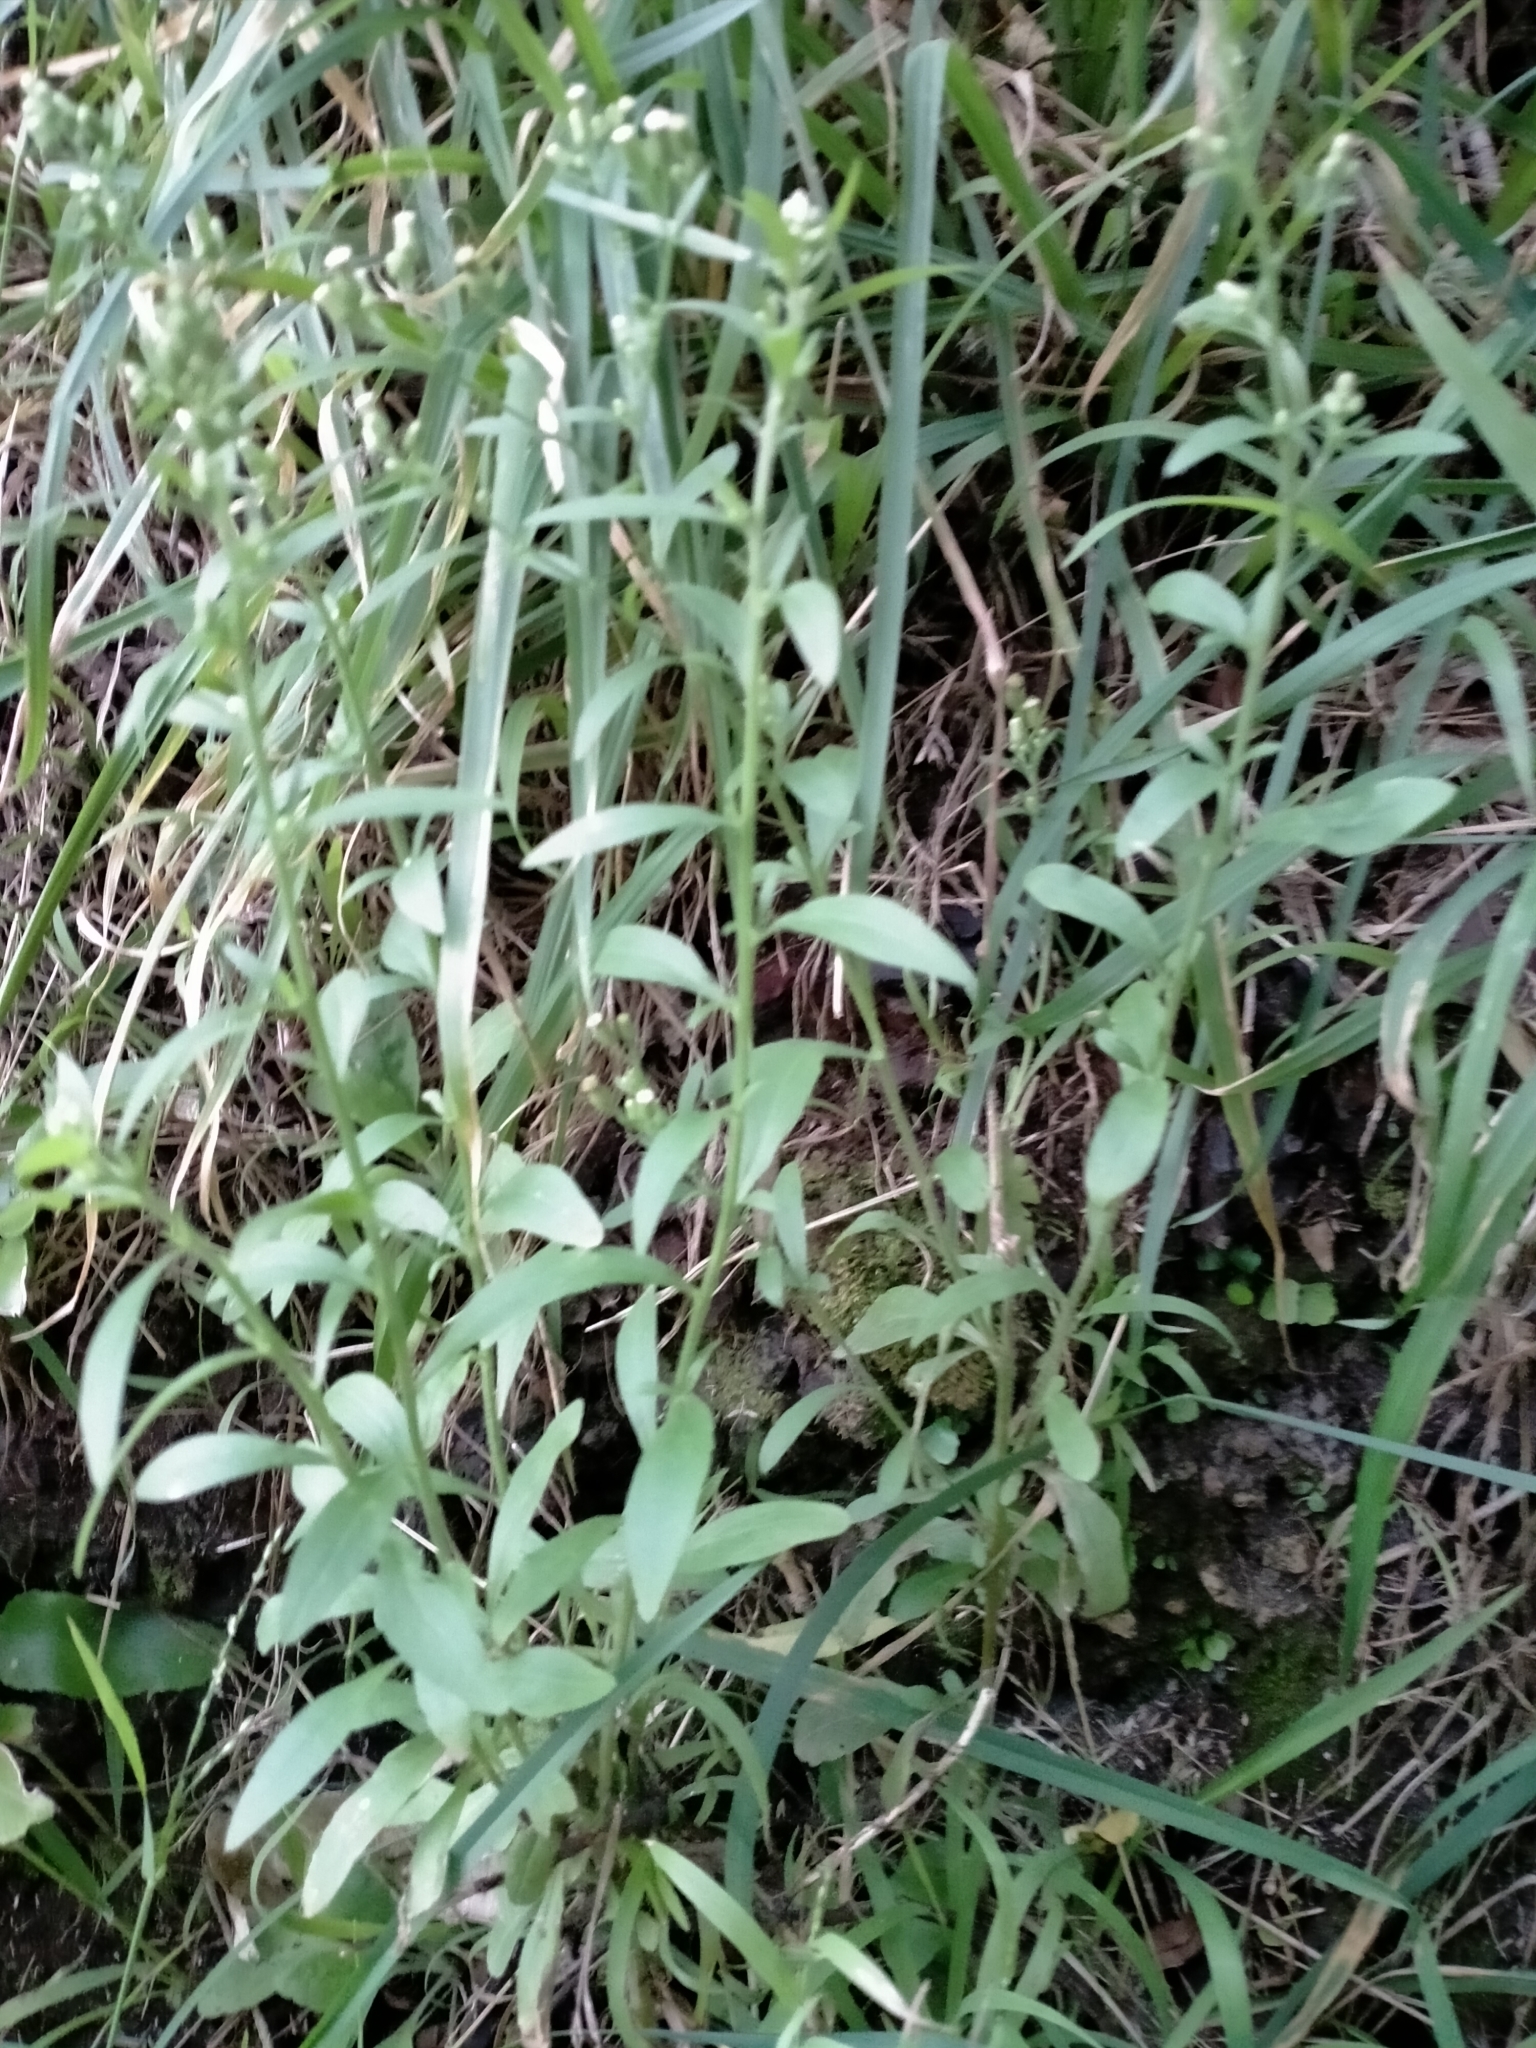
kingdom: Plantae
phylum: Tracheophyta
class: Magnoliopsida
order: Asterales
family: Asteraceae
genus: Erigeron
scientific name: Erigeron sumatrensis
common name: Daisy
